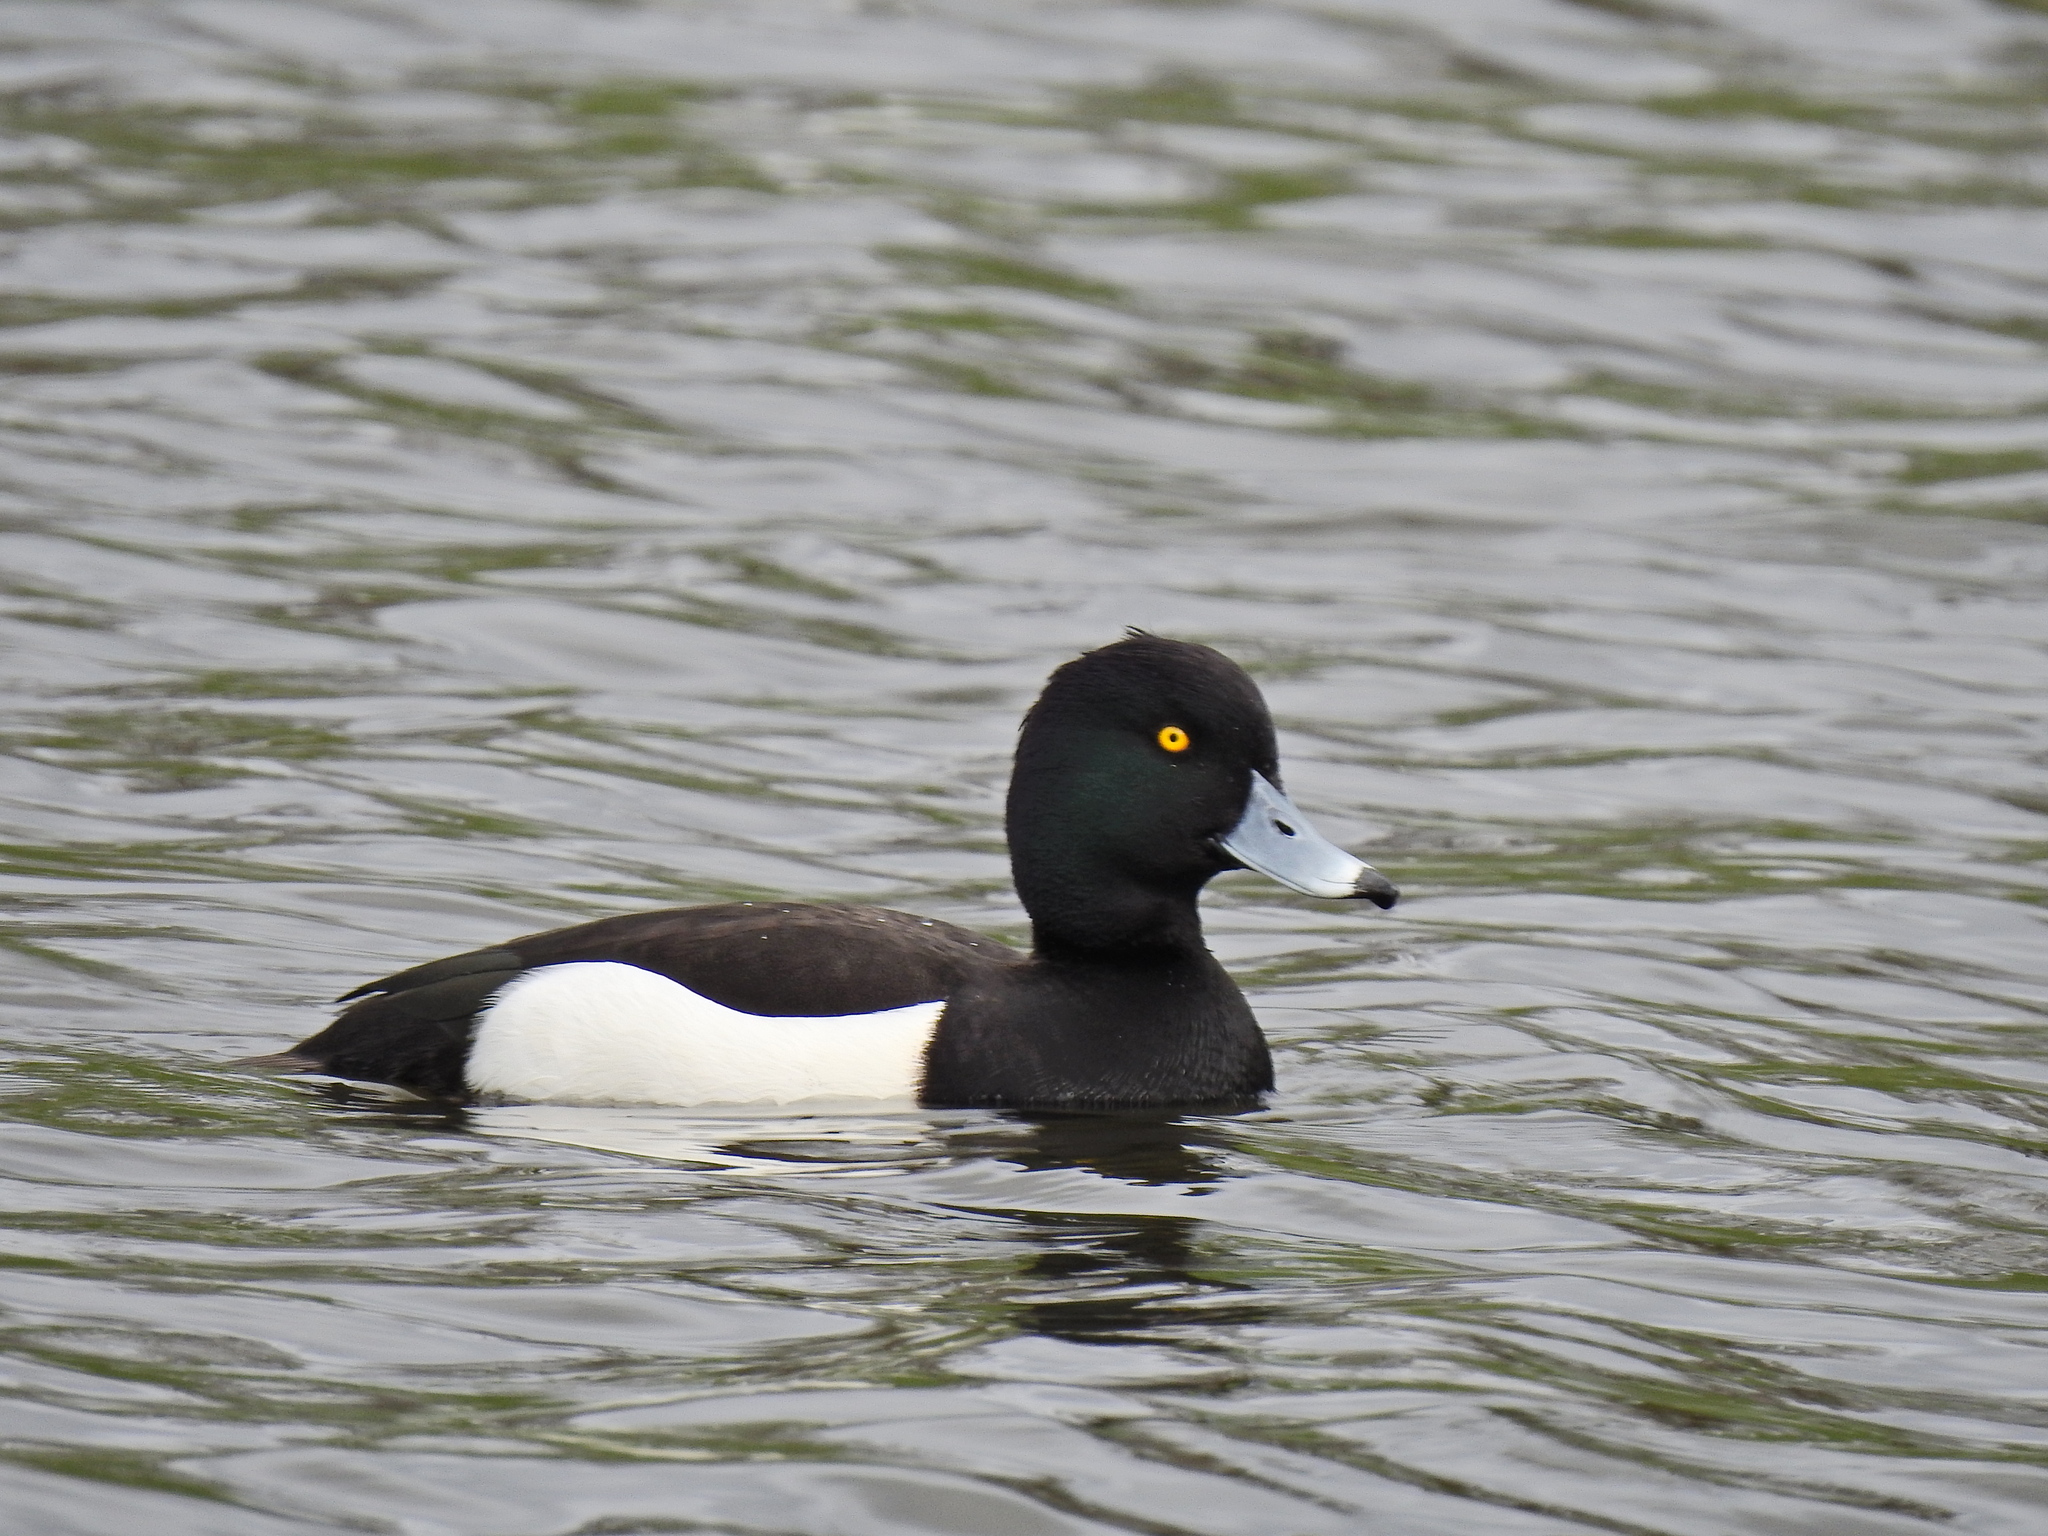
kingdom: Animalia
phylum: Chordata
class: Aves
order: Anseriformes
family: Anatidae
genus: Aythya
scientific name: Aythya fuligula
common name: Tufted duck
